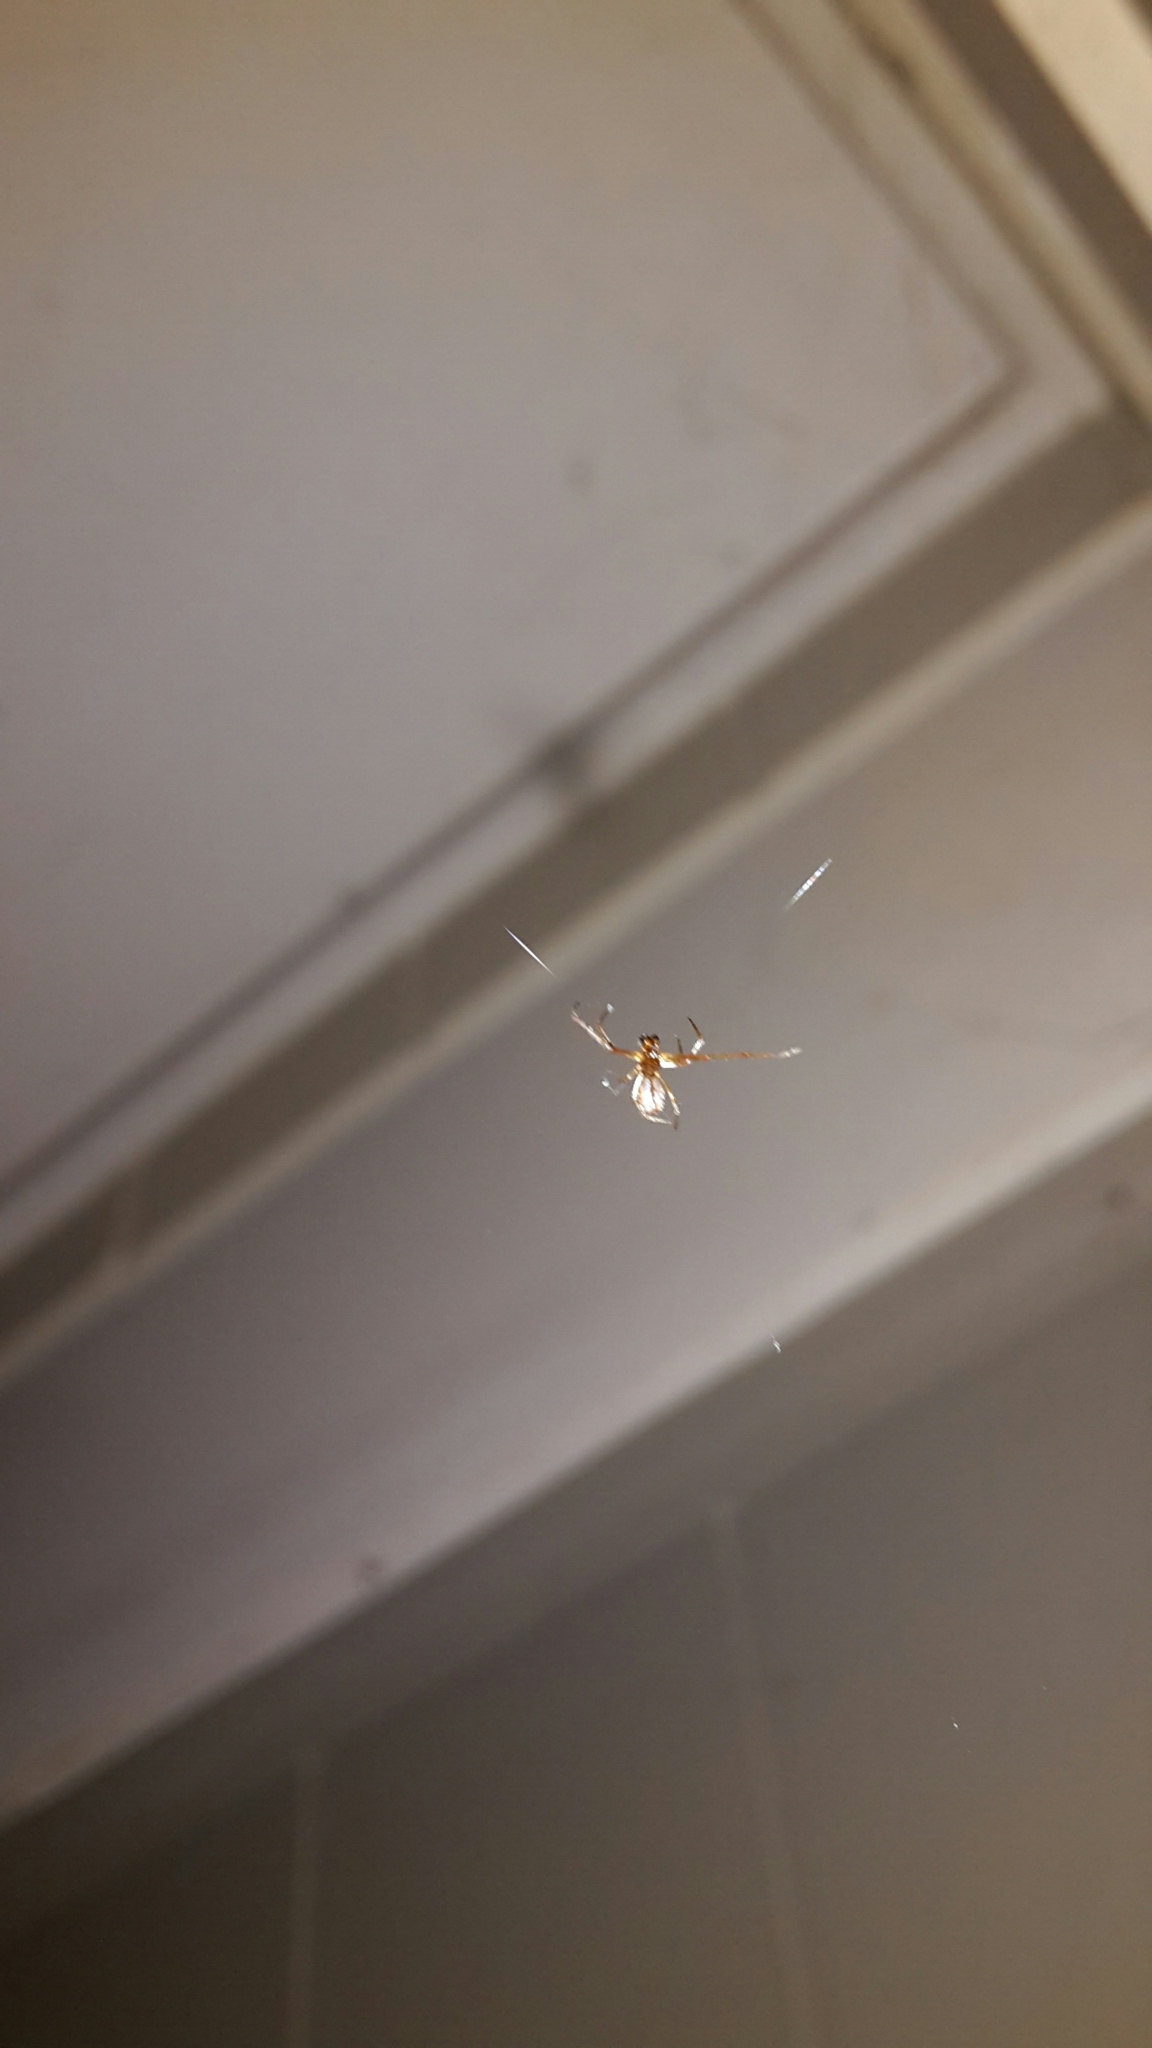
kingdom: Animalia
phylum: Arthropoda
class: Arachnida
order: Araneae
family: Theridiidae
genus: Argyrodes
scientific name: Argyrodes antipodianus
